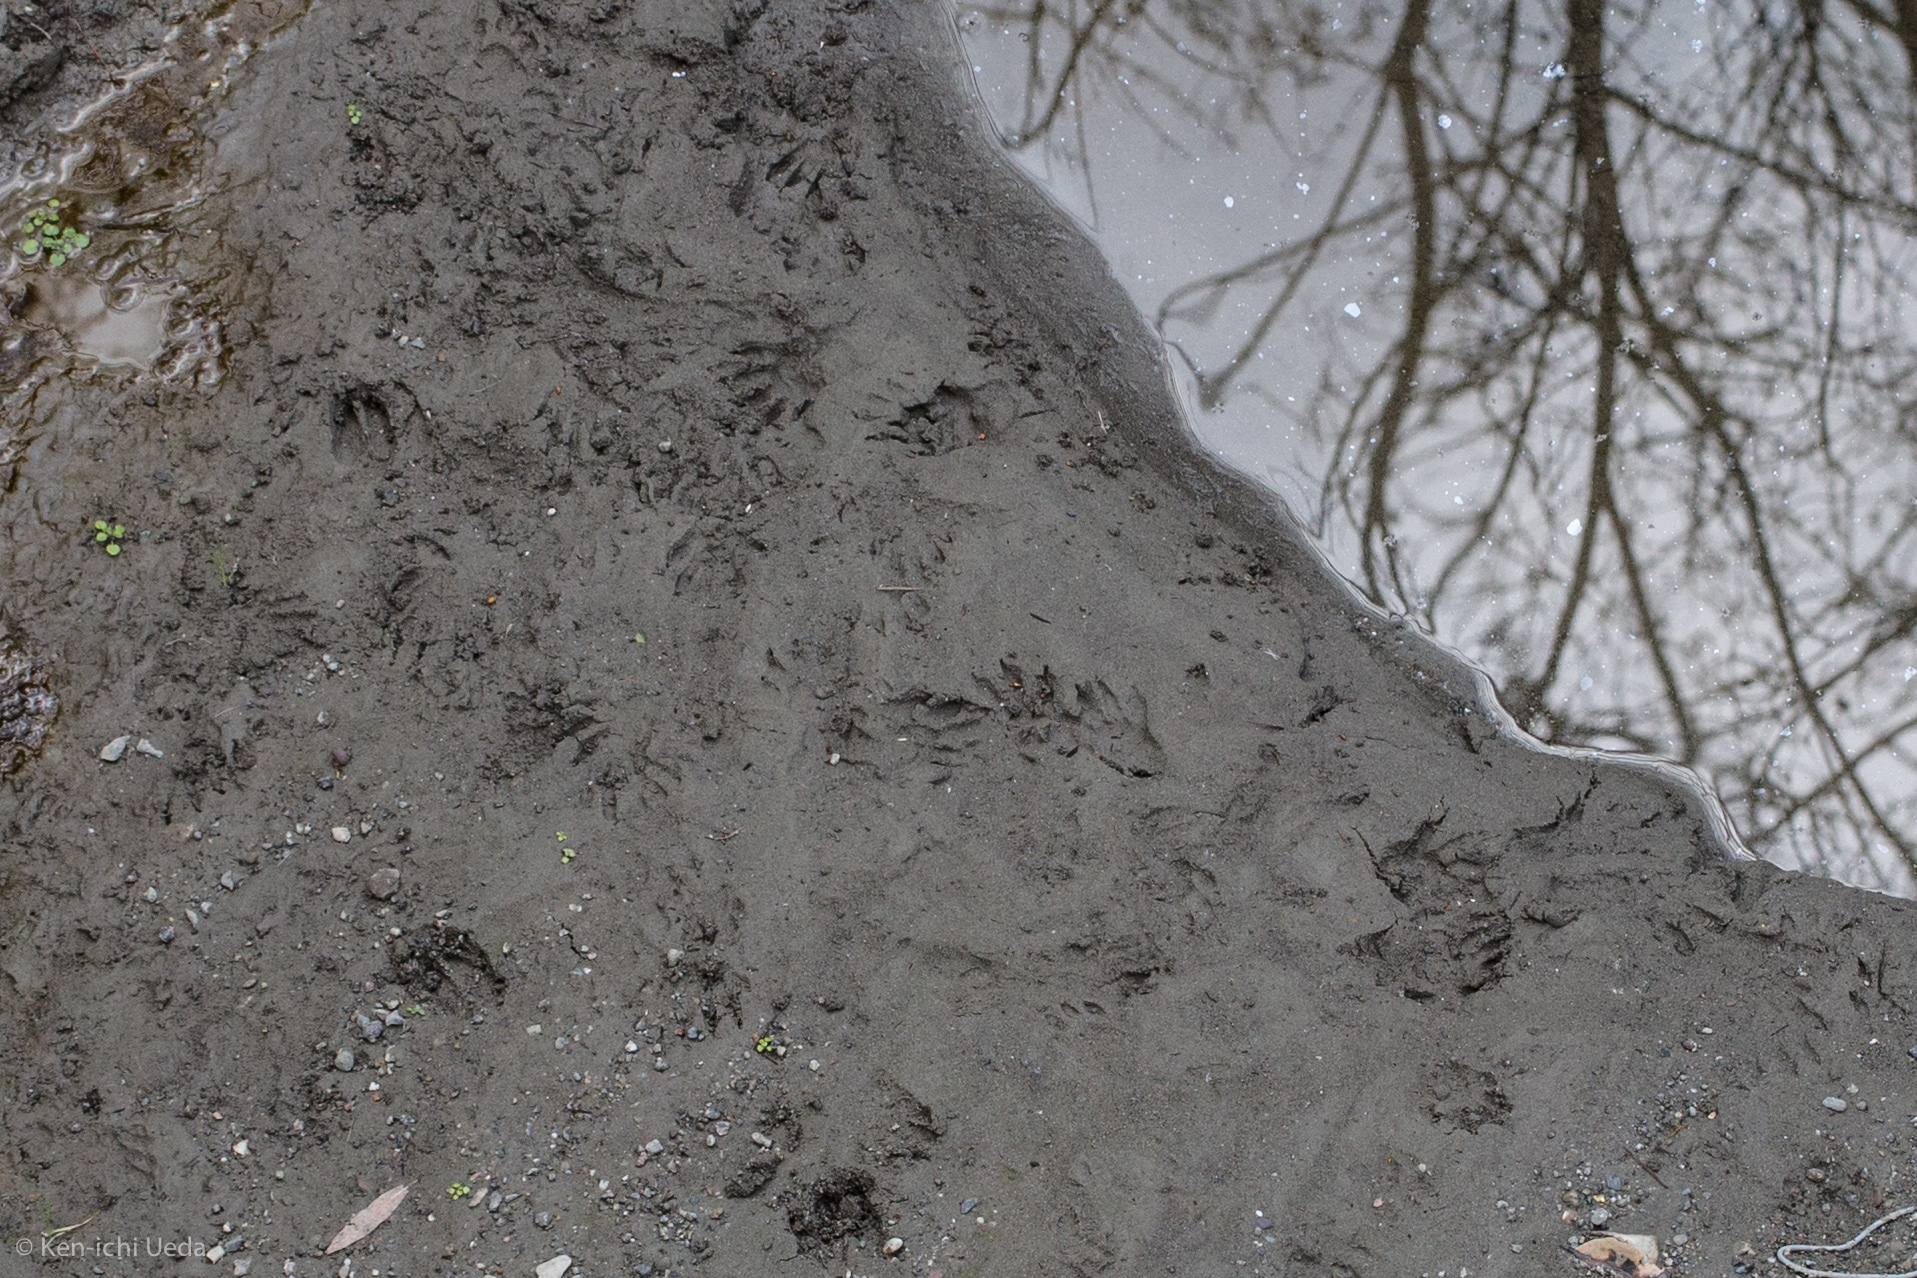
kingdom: Animalia
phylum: Chordata
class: Mammalia
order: Carnivora
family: Procyonidae
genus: Procyon
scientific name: Procyon lotor
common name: Raccoon
